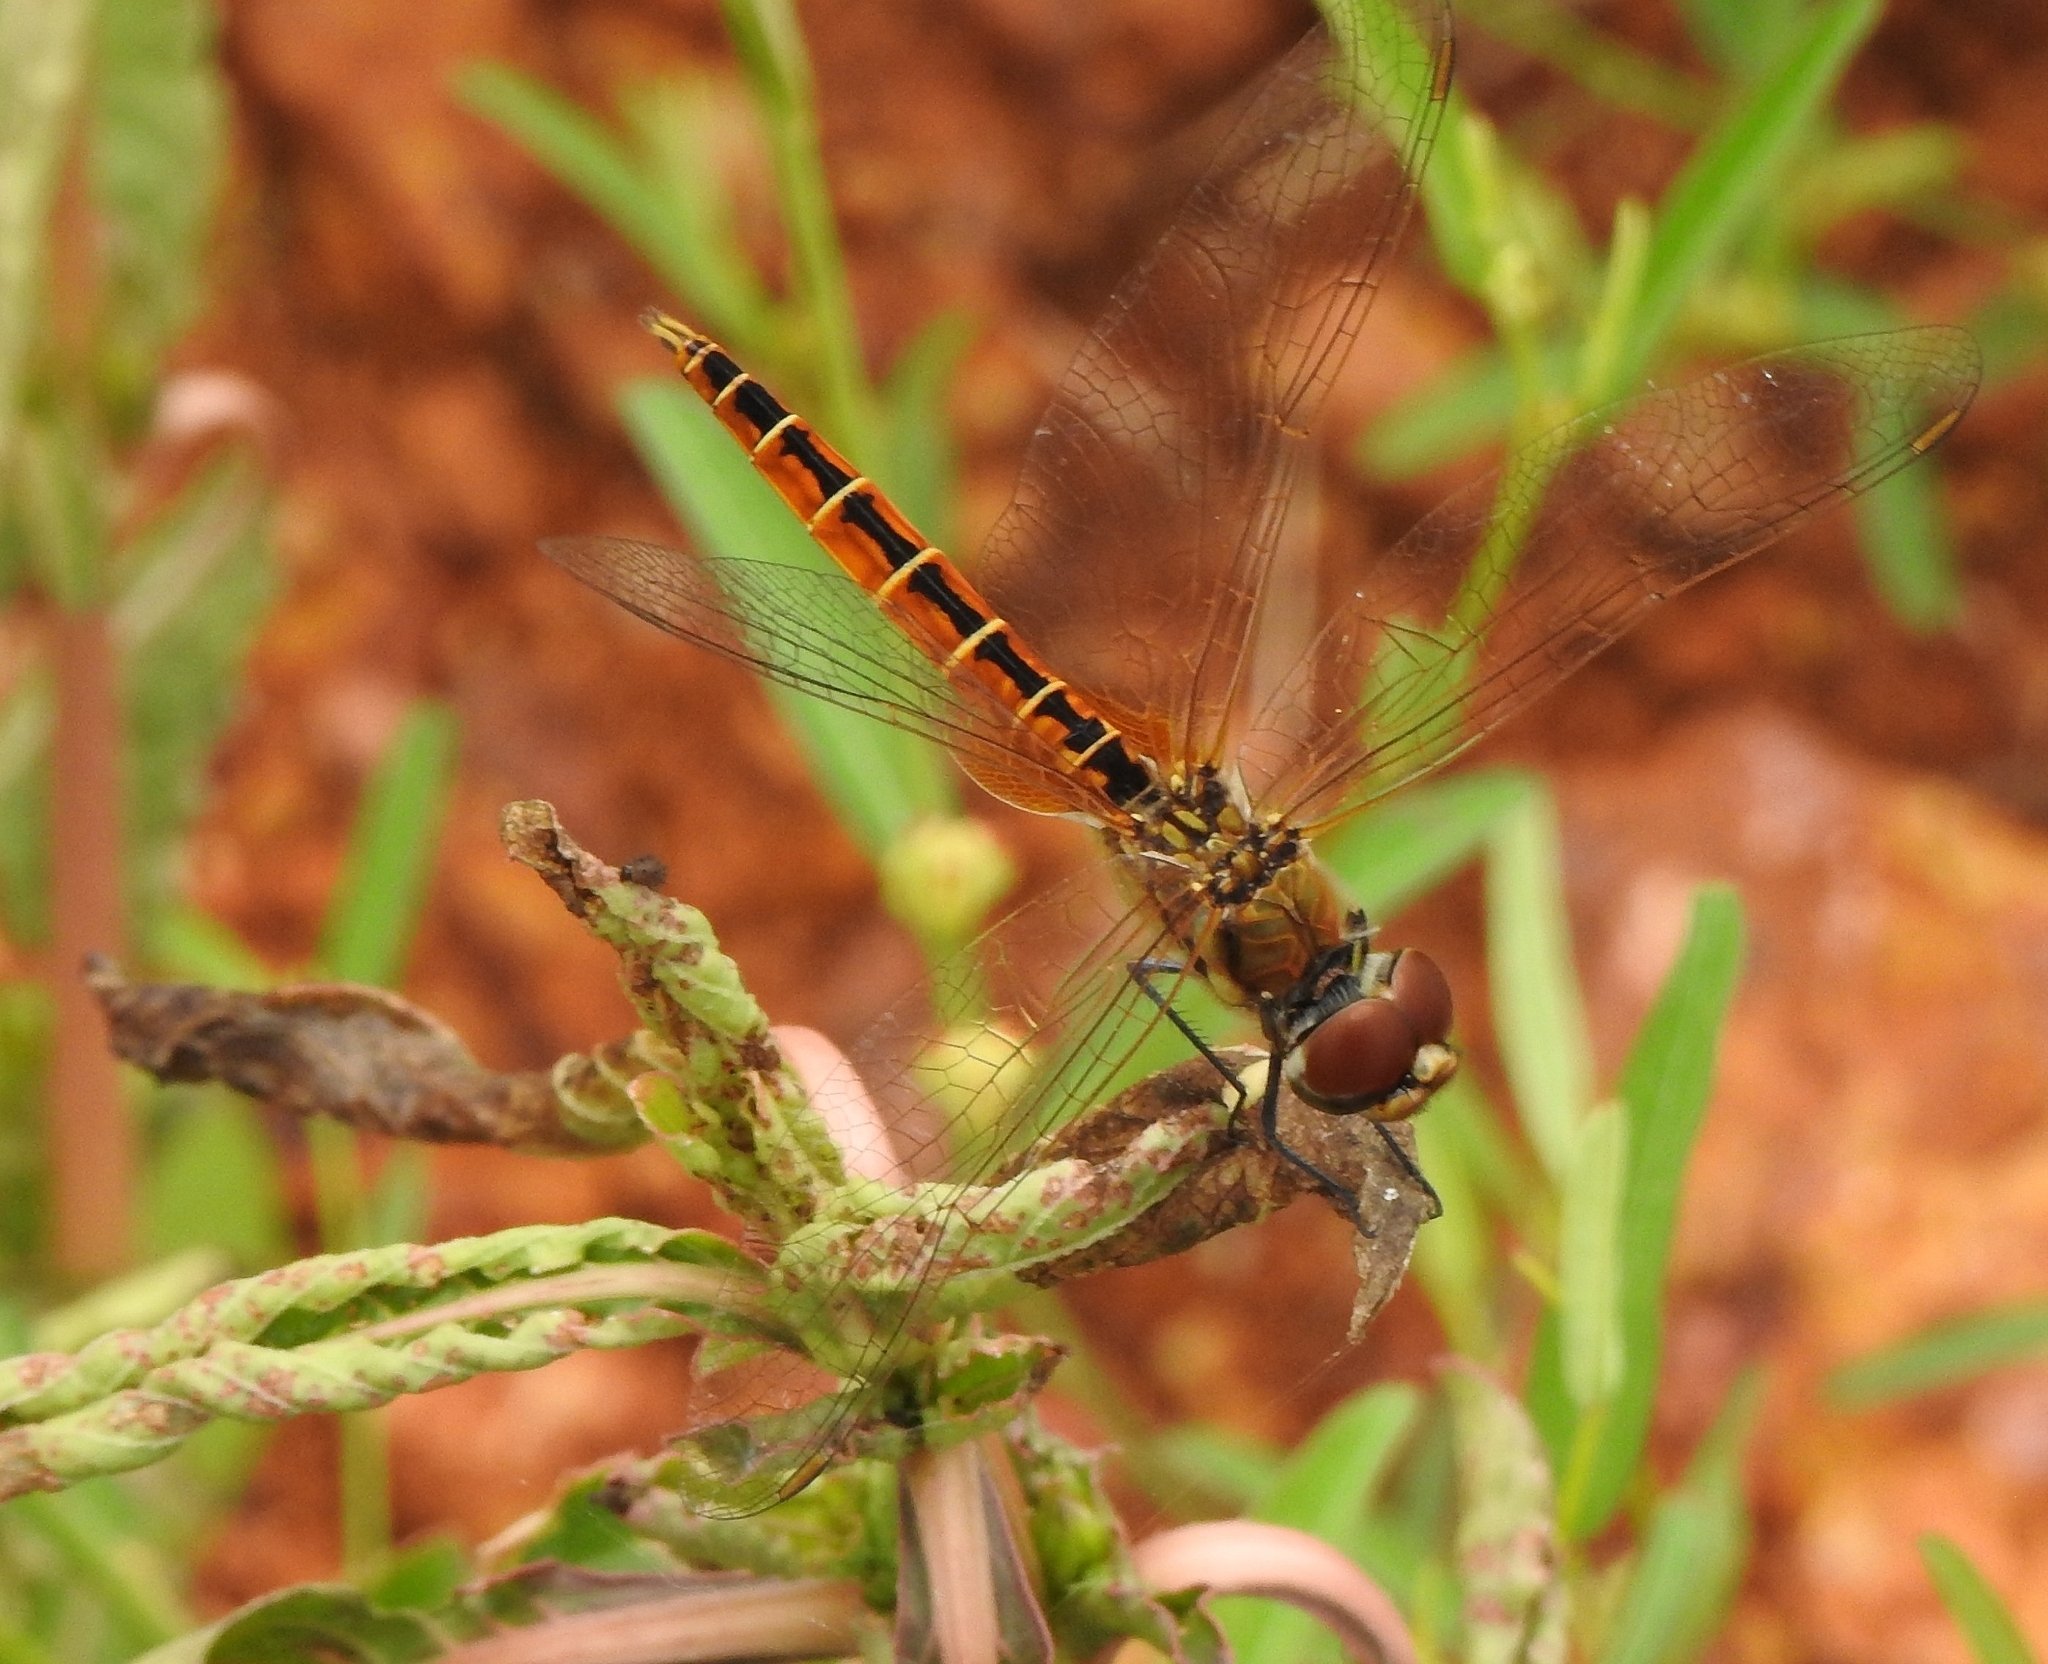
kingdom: Animalia
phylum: Arthropoda
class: Insecta
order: Odonata
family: Libellulidae
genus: Macrodiplax
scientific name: Macrodiplax cora
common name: Coastal glider
